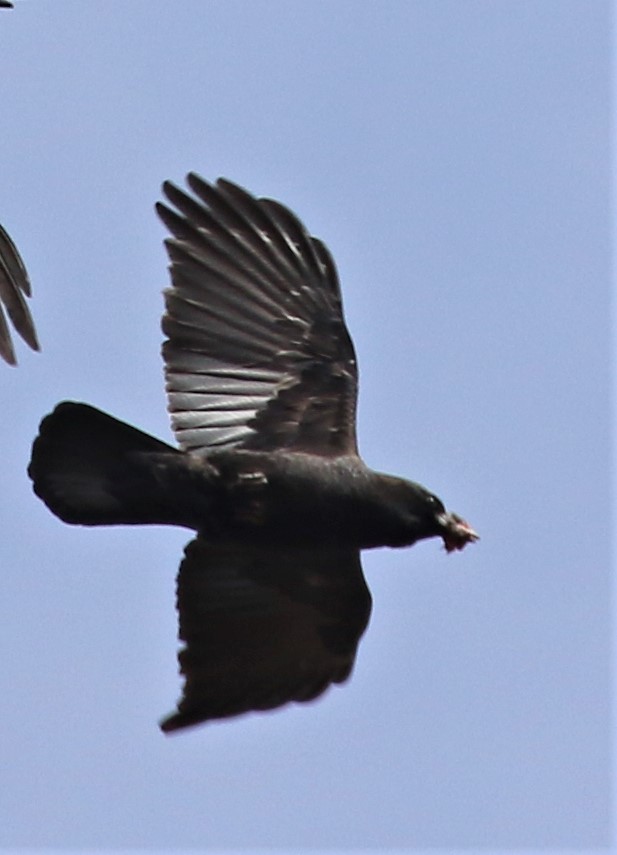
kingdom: Animalia
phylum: Chordata
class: Aves
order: Passeriformes
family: Corvidae
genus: Corvus
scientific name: Corvus brachyrhynchos
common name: American crow
